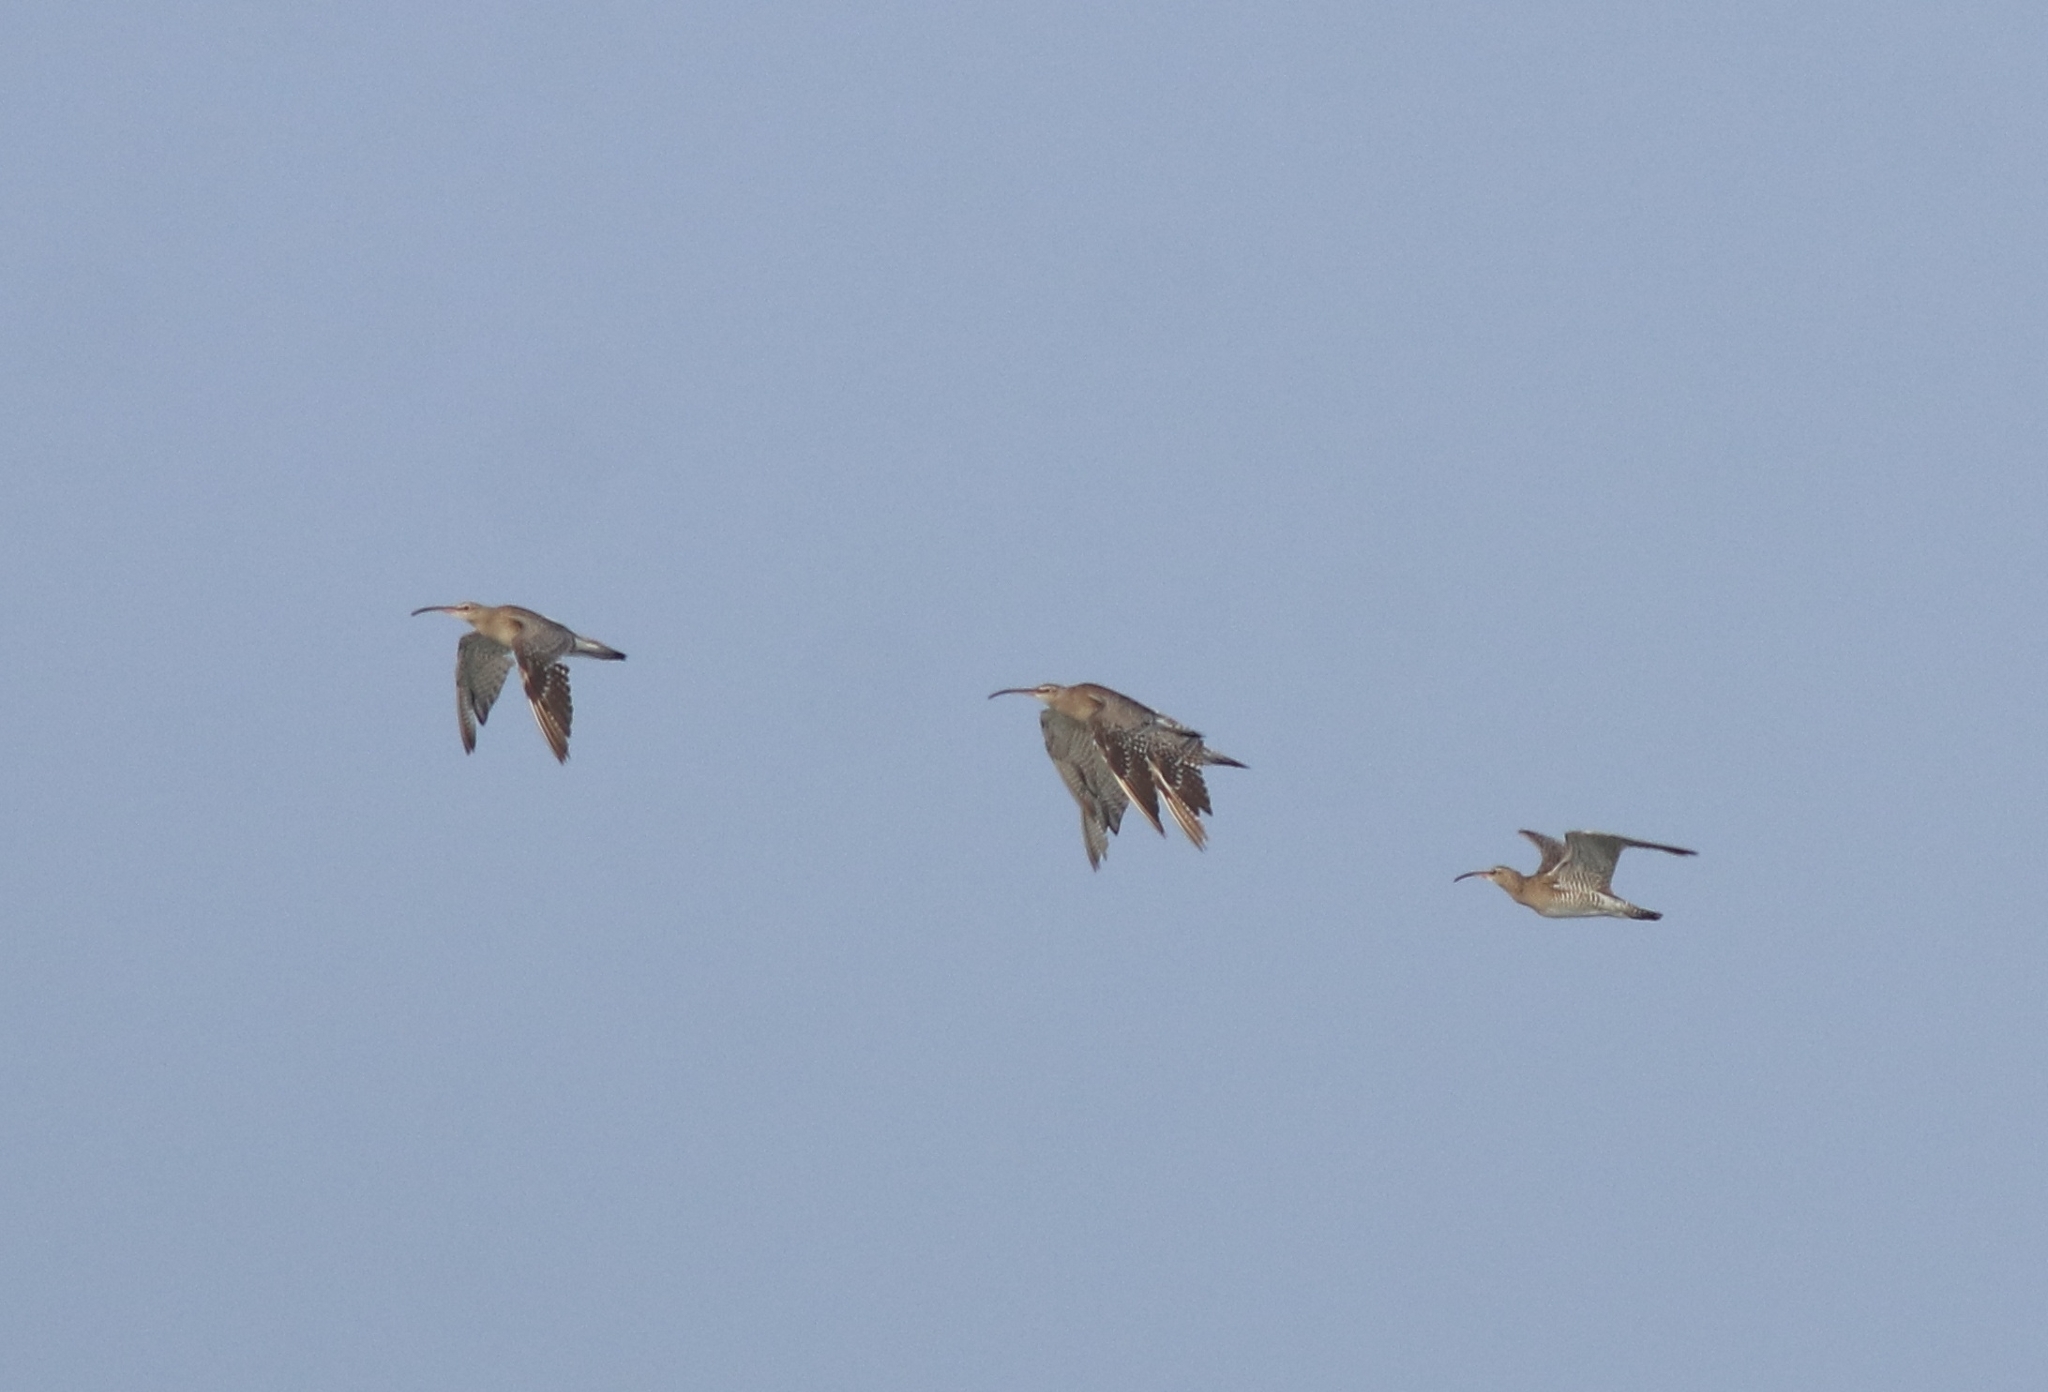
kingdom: Animalia
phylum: Chordata
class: Aves
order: Charadriiformes
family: Scolopacidae
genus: Numenius
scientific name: Numenius phaeopus
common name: Whimbrel
